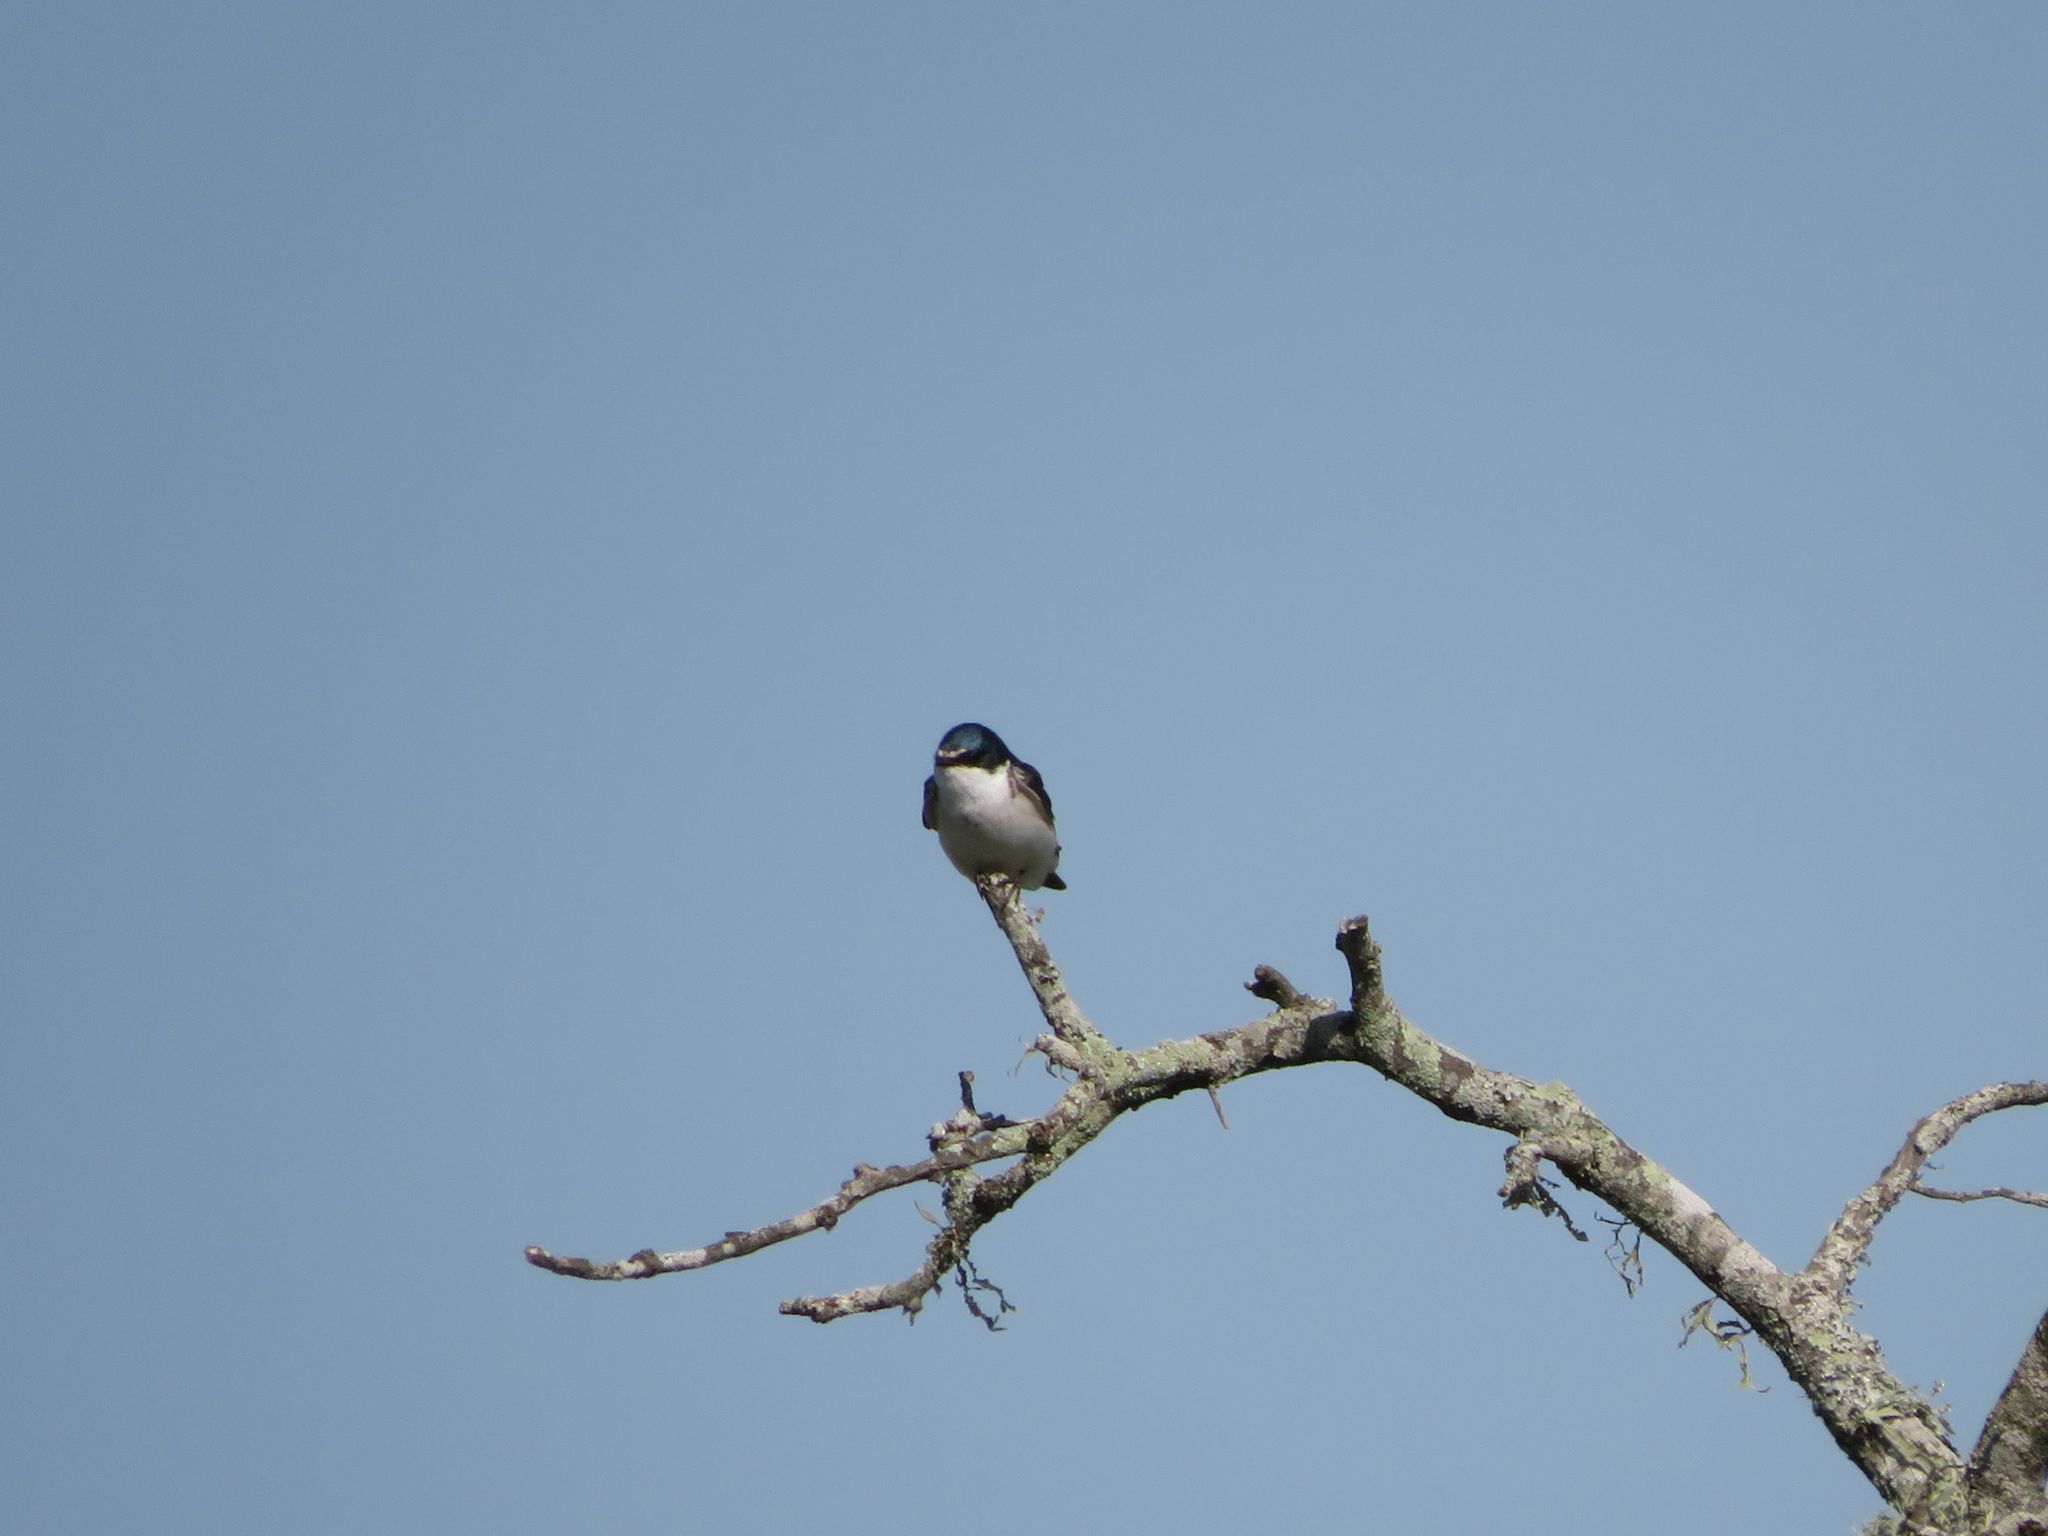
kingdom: Animalia
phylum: Chordata
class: Aves
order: Passeriformes
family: Hirundinidae
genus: Tachycineta
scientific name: Tachycineta leucorrhoa
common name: White-rumped swallow
